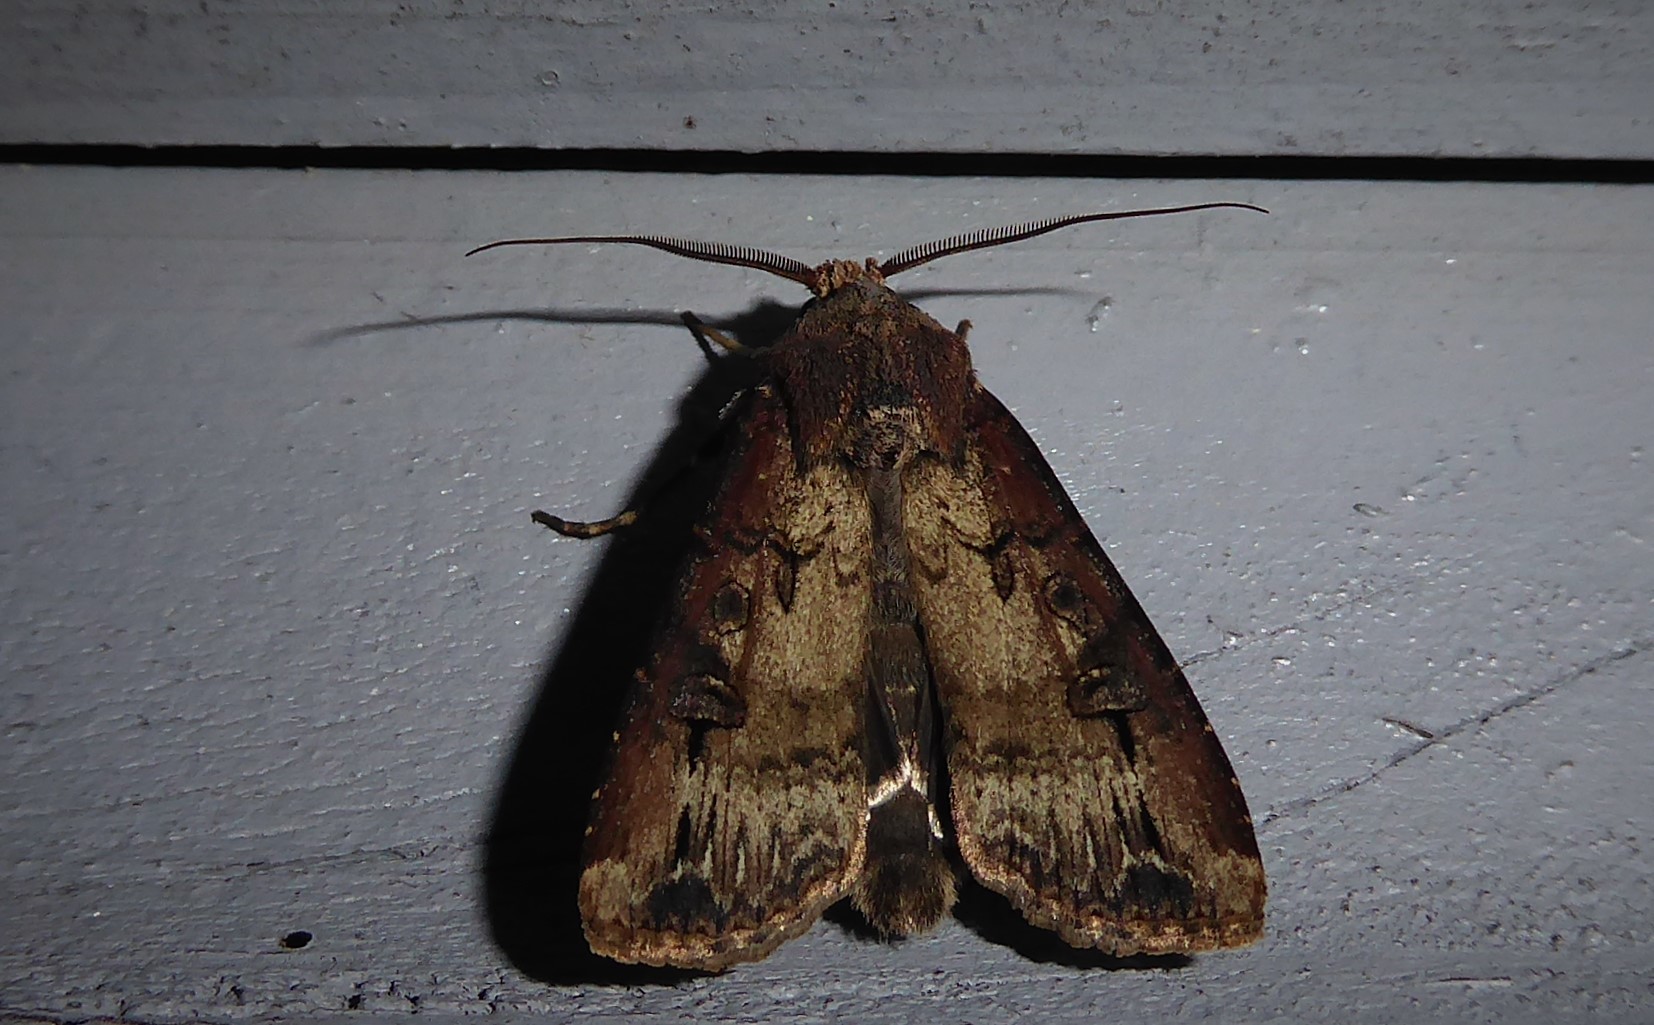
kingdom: Animalia
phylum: Arthropoda
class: Insecta
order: Lepidoptera
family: Noctuidae
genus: Agrotis
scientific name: Agrotis ipsilon
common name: Dark sword-grass
